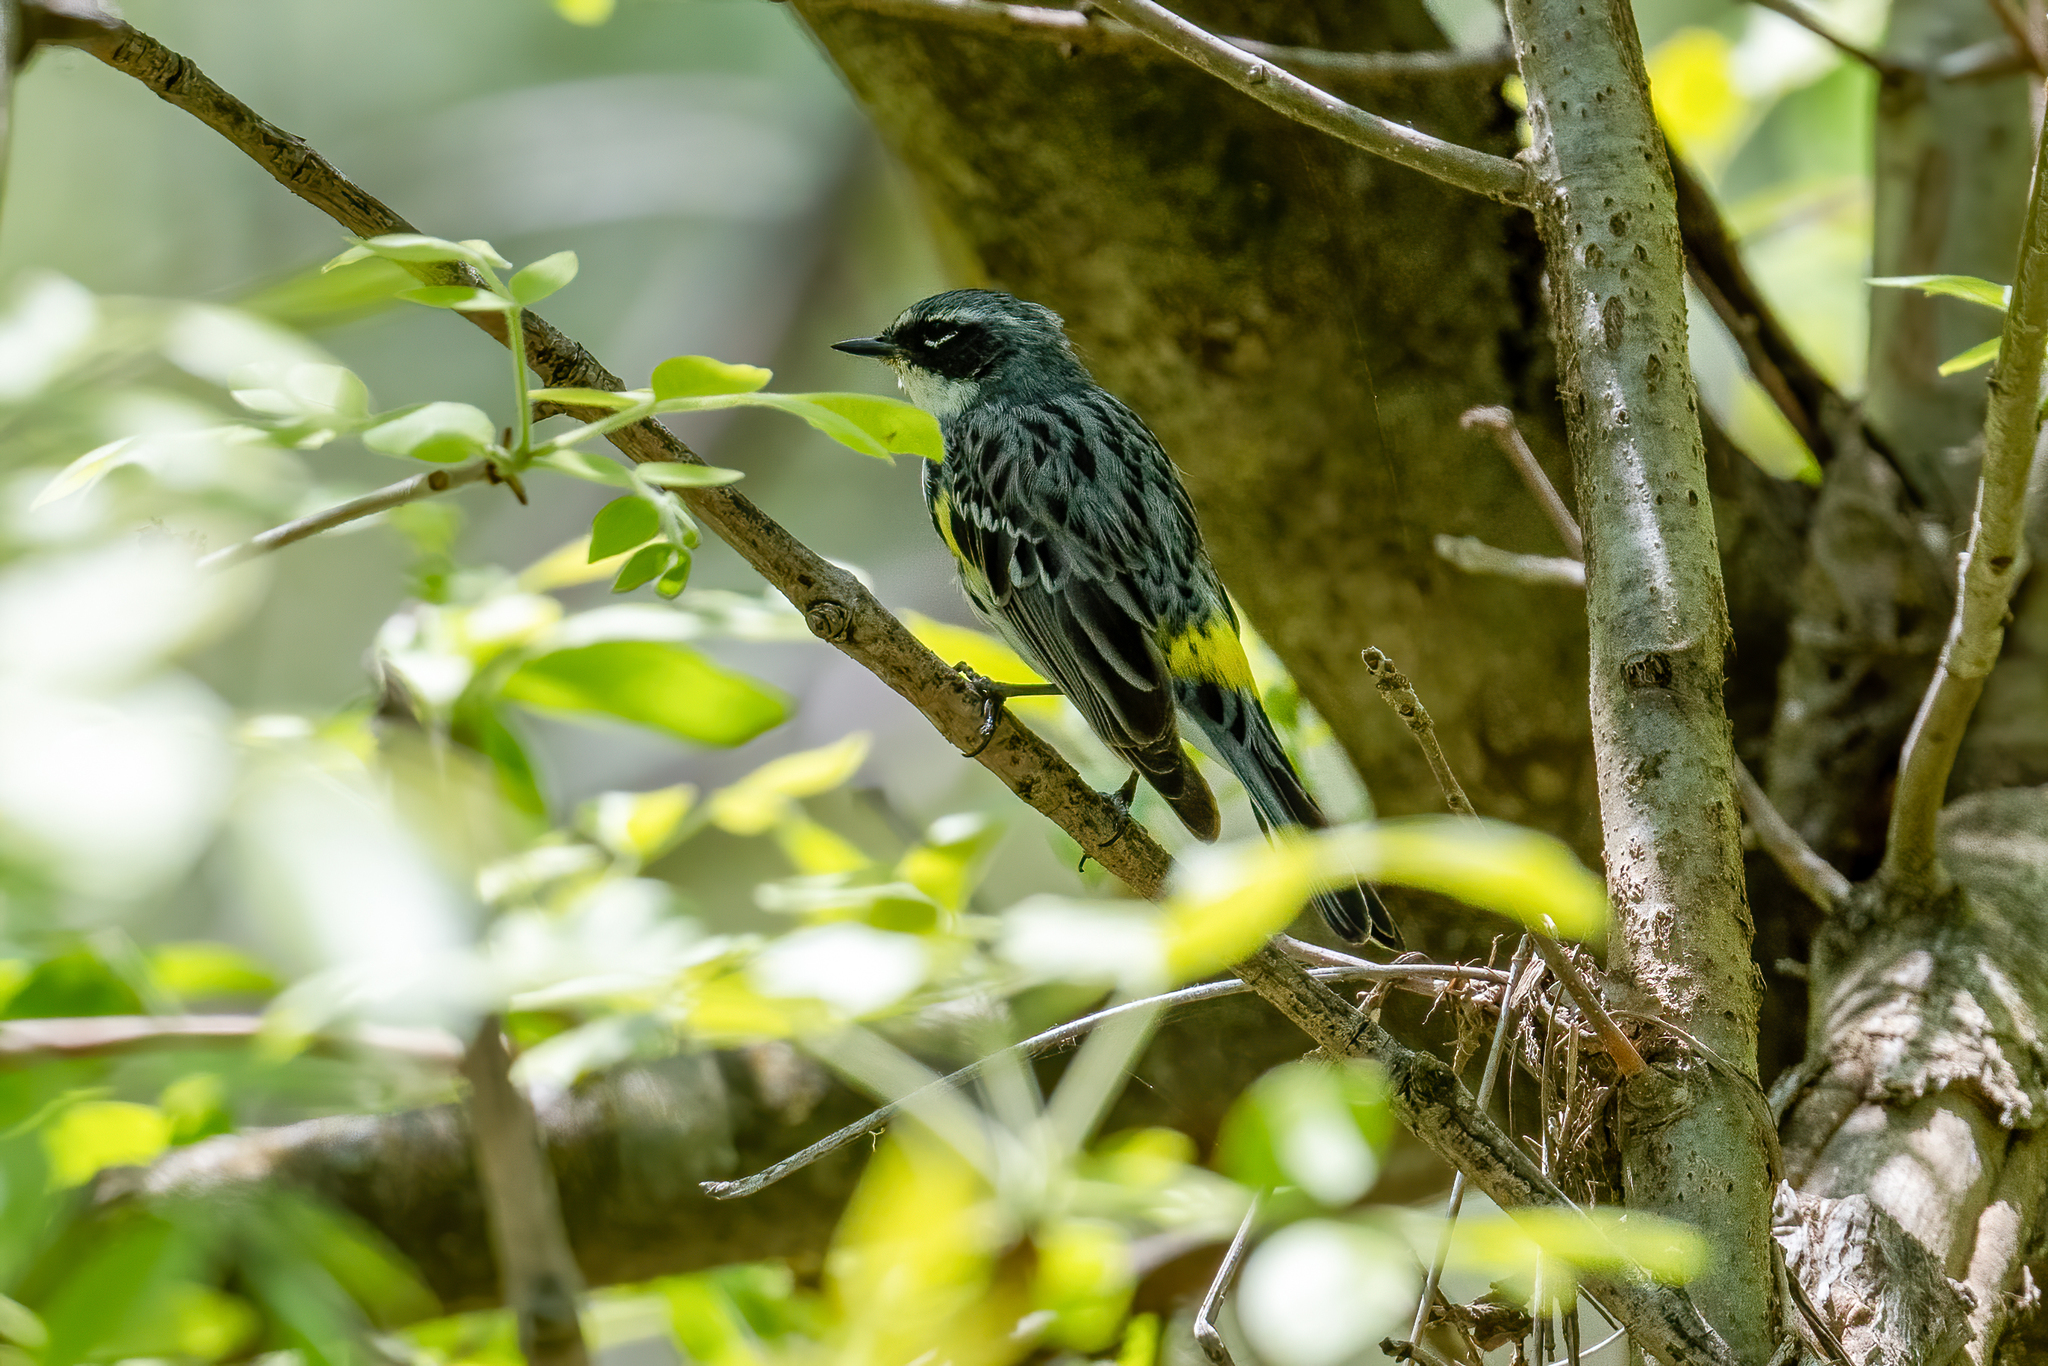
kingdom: Animalia
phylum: Chordata
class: Aves
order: Passeriformes
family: Parulidae
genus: Setophaga
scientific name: Setophaga coronata
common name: Myrtle warbler
